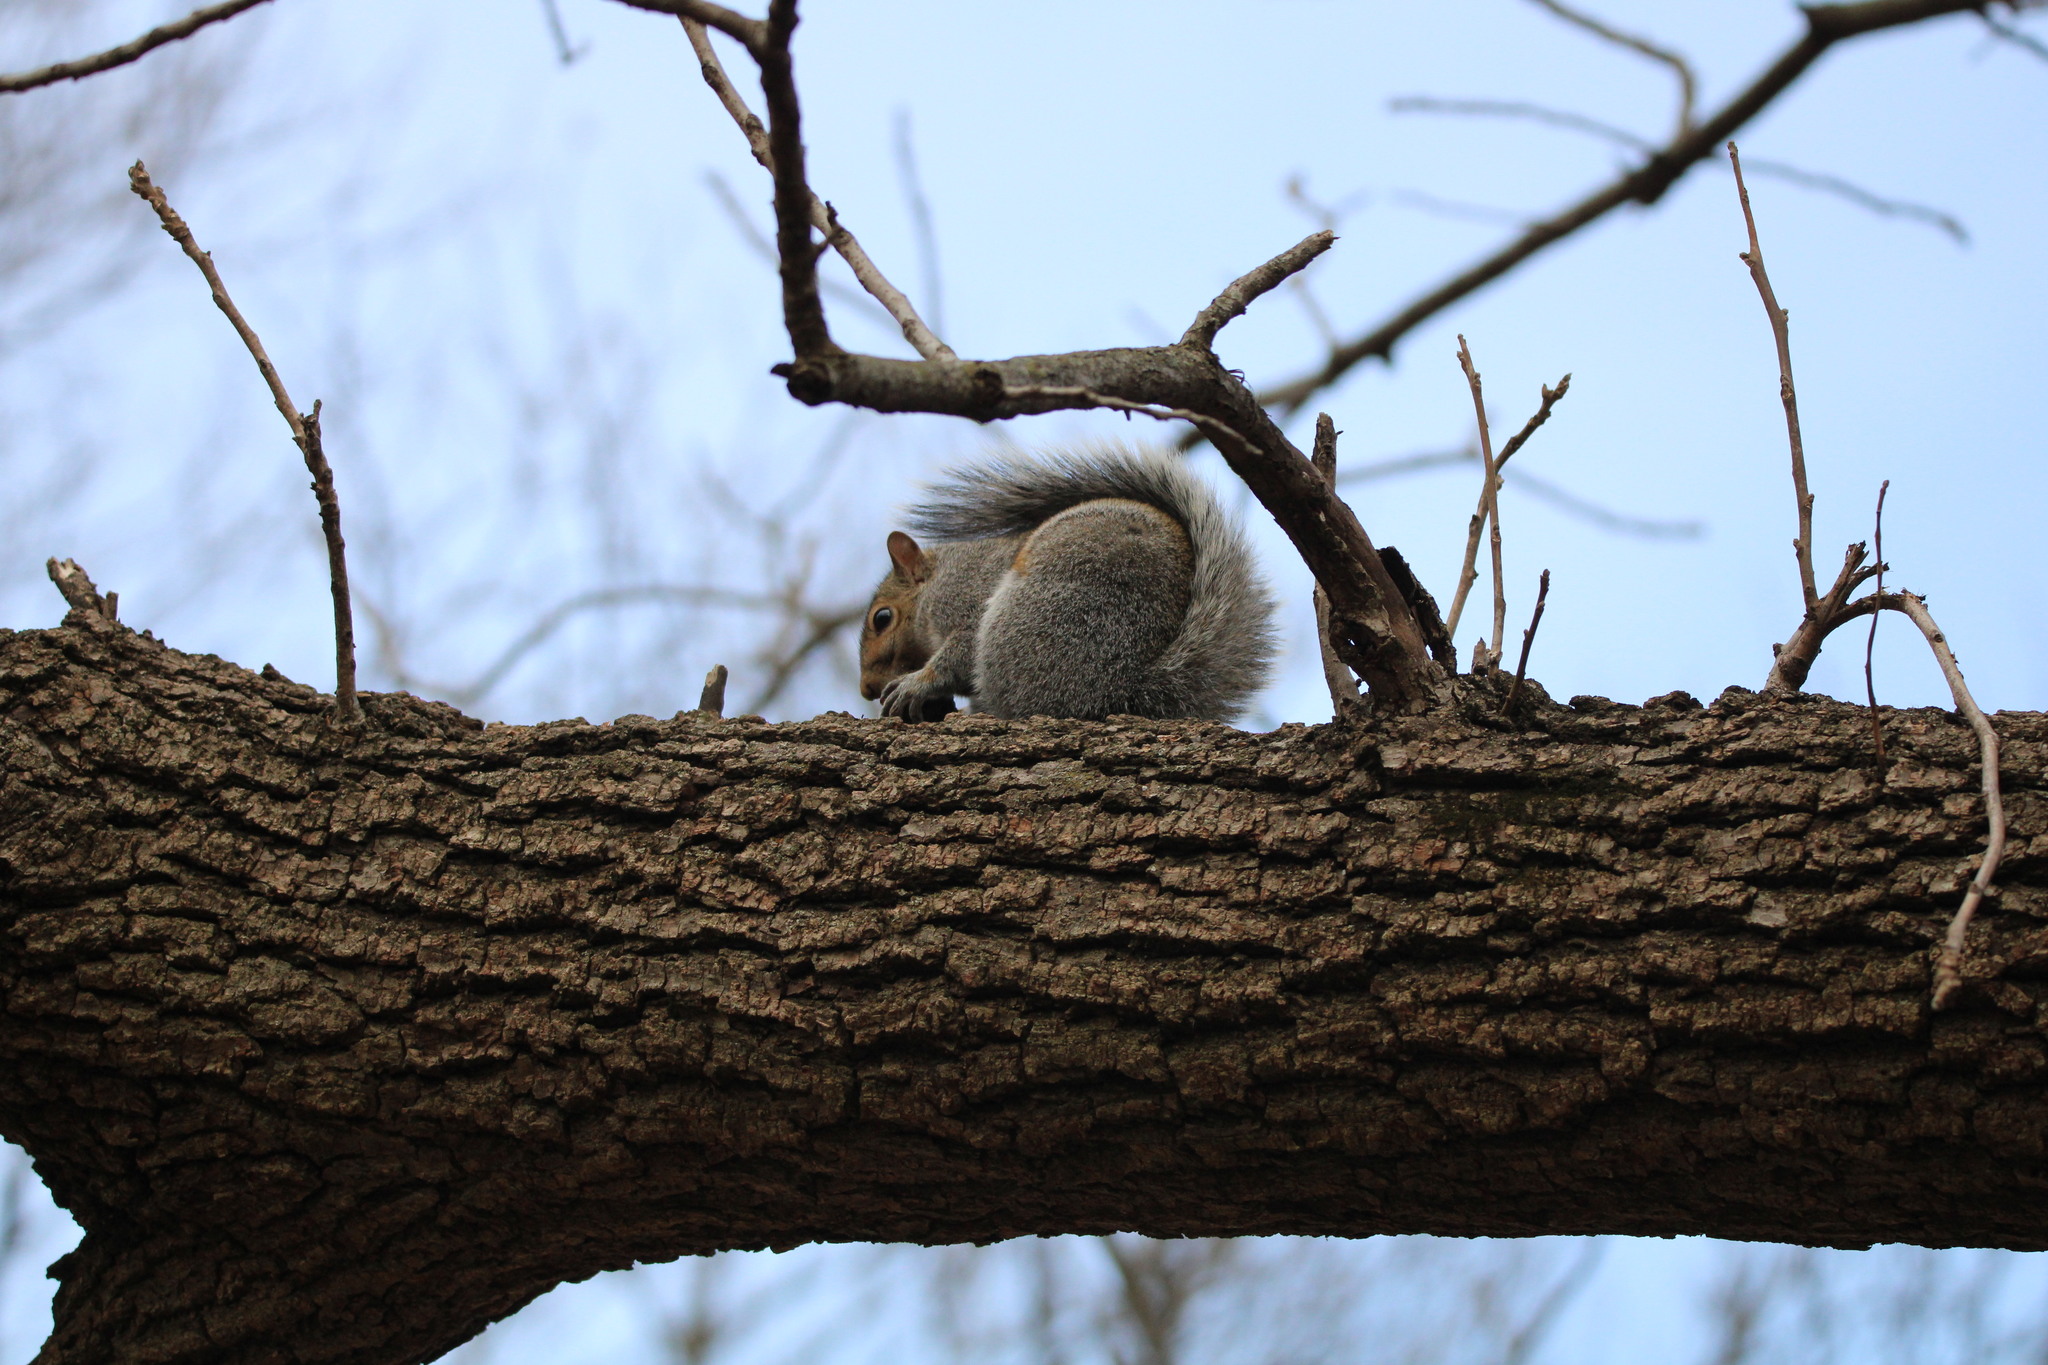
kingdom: Animalia
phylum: Chordata
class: Mammalia
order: Rodentia
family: Sciuridae
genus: Sciurus
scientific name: Sciurus carolinensis
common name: Eastern gray squirrel
